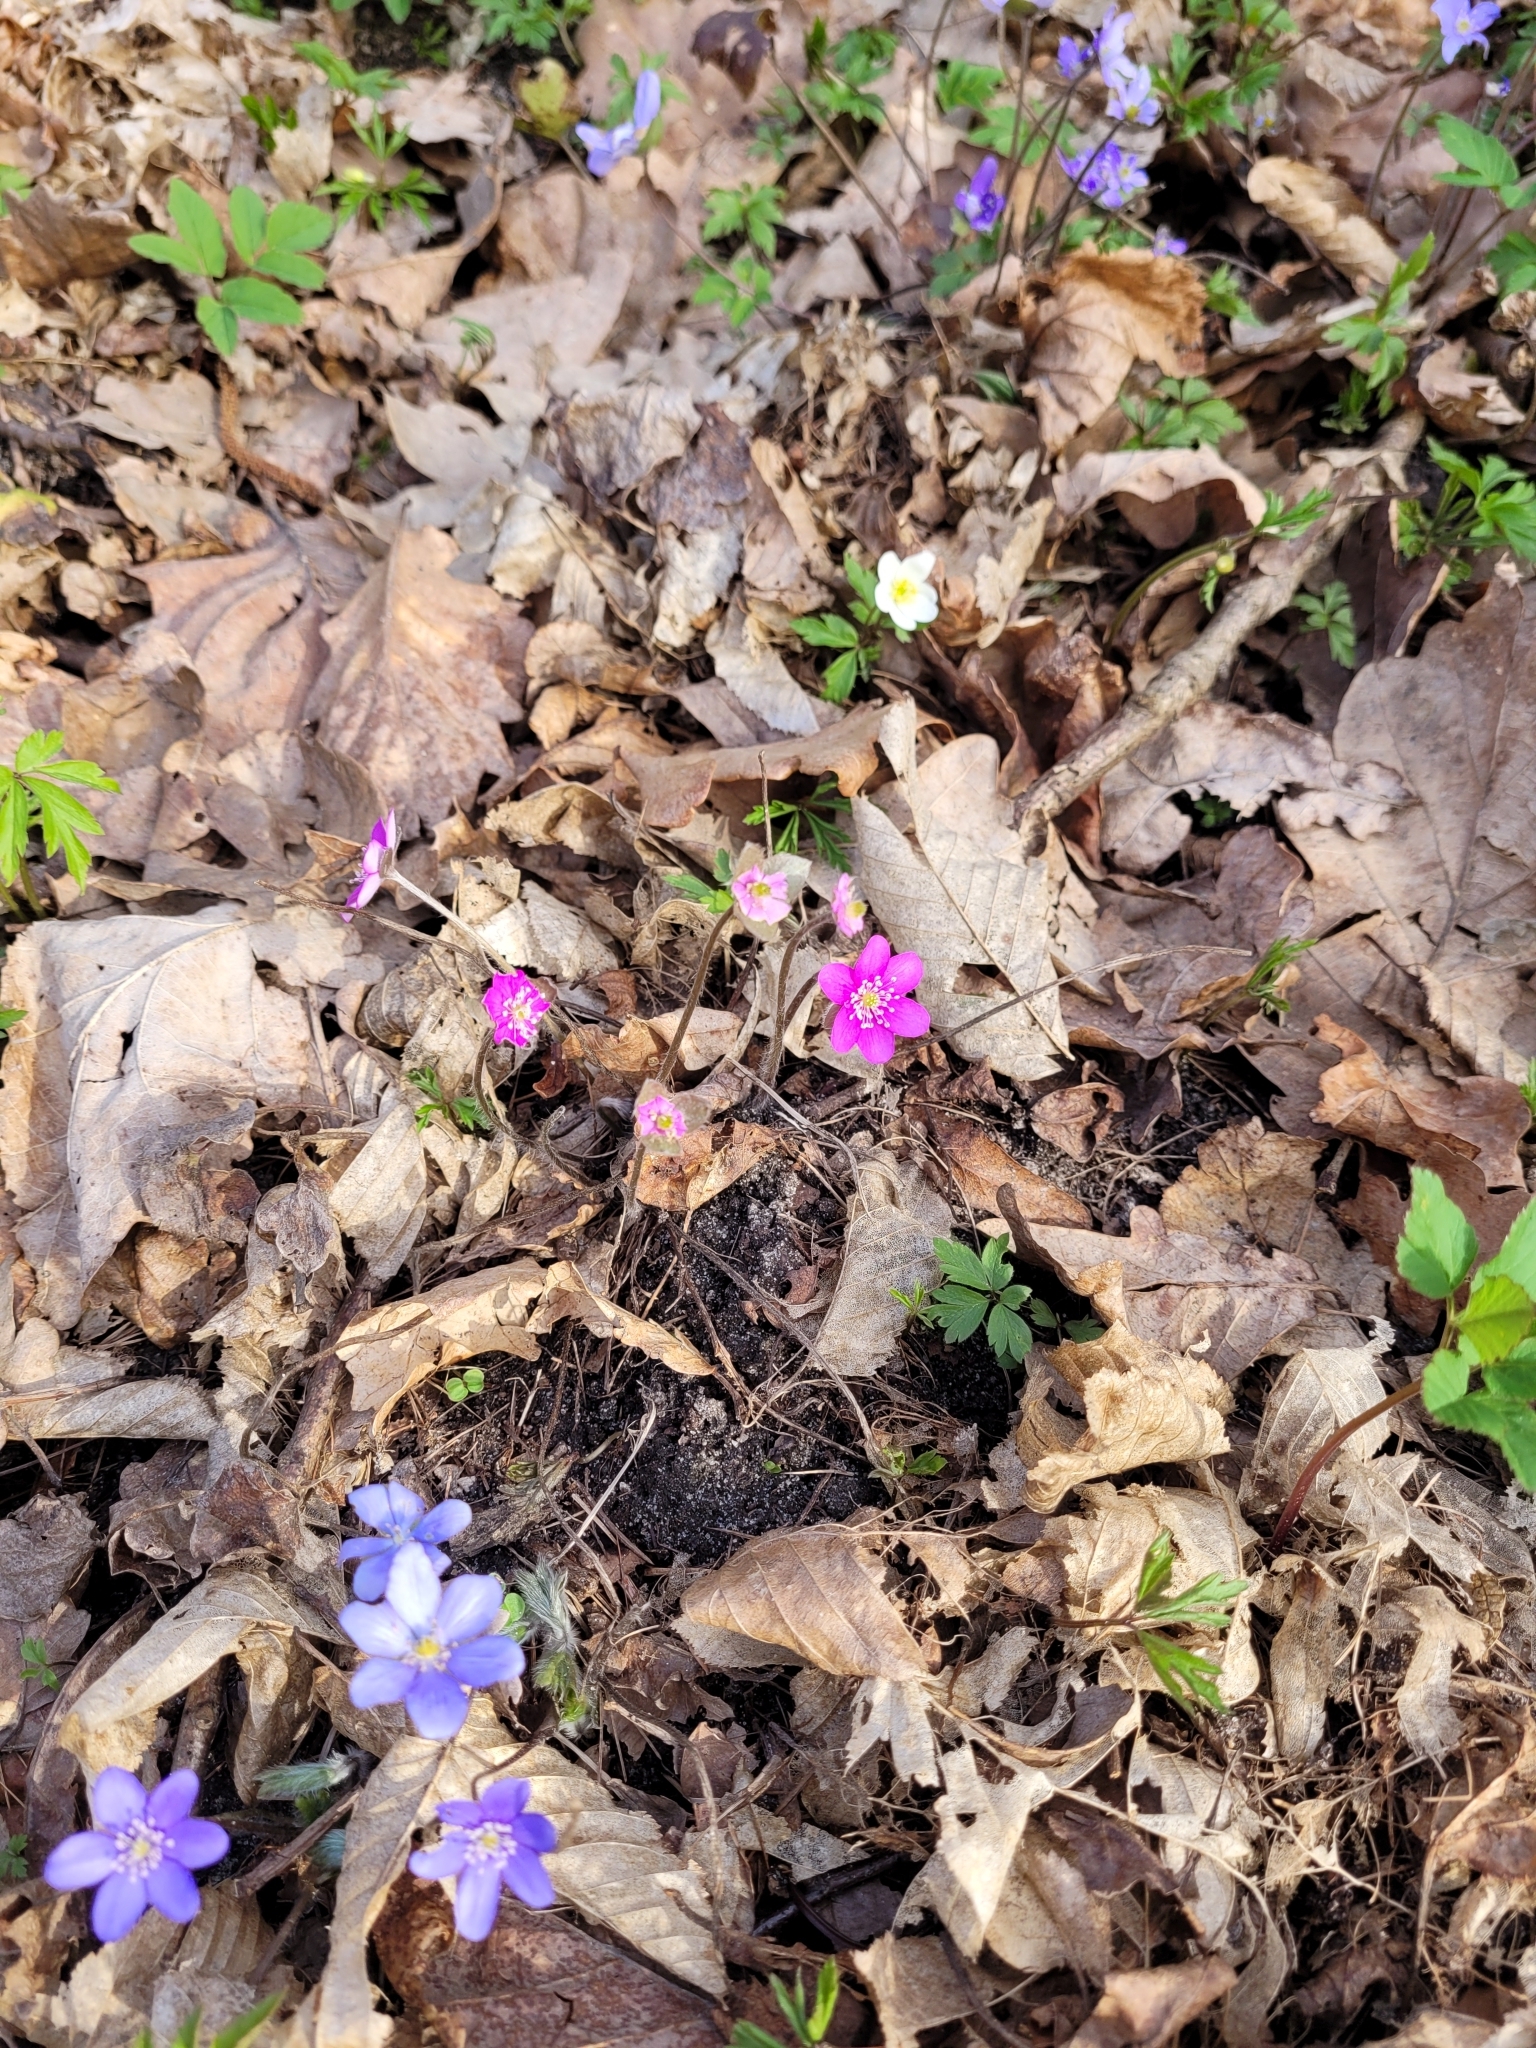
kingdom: Plantae
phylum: Tracheophyta
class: Magnoliopsida
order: Ranunculales
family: Ranunculaceae
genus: Hepatica
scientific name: Hepatica nobilis
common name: Liverleaf
